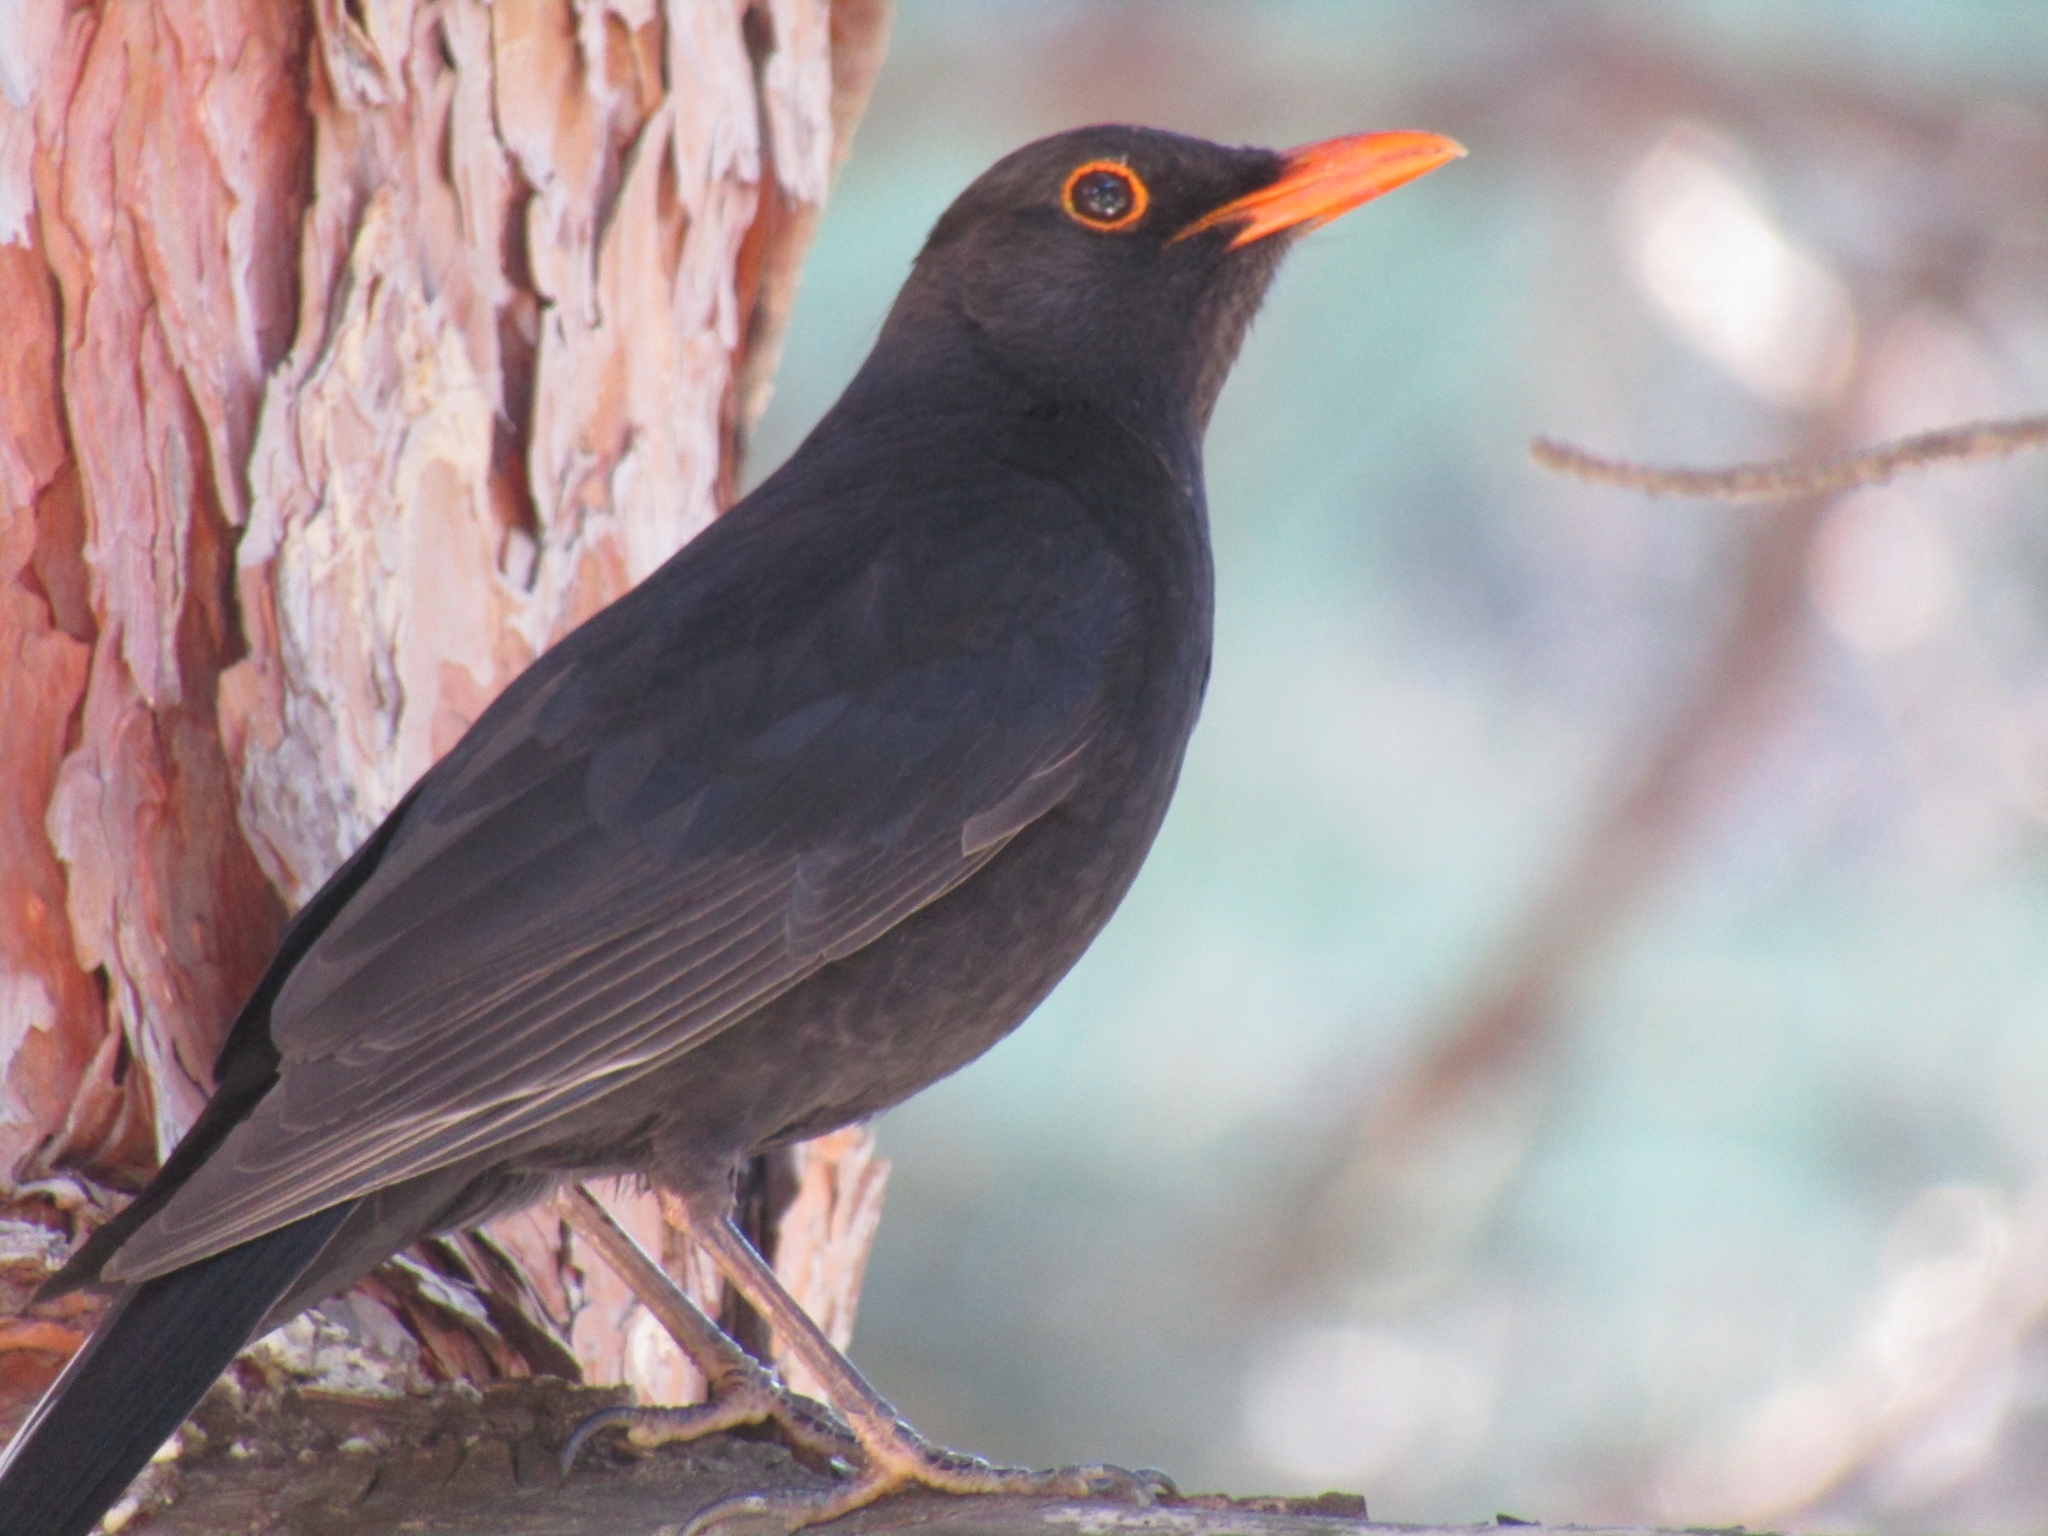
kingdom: Animalia
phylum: Chordata
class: Aves
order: Passeriformes
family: Turdidae
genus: Turdus
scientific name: Turdus merula
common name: Common blackbird
